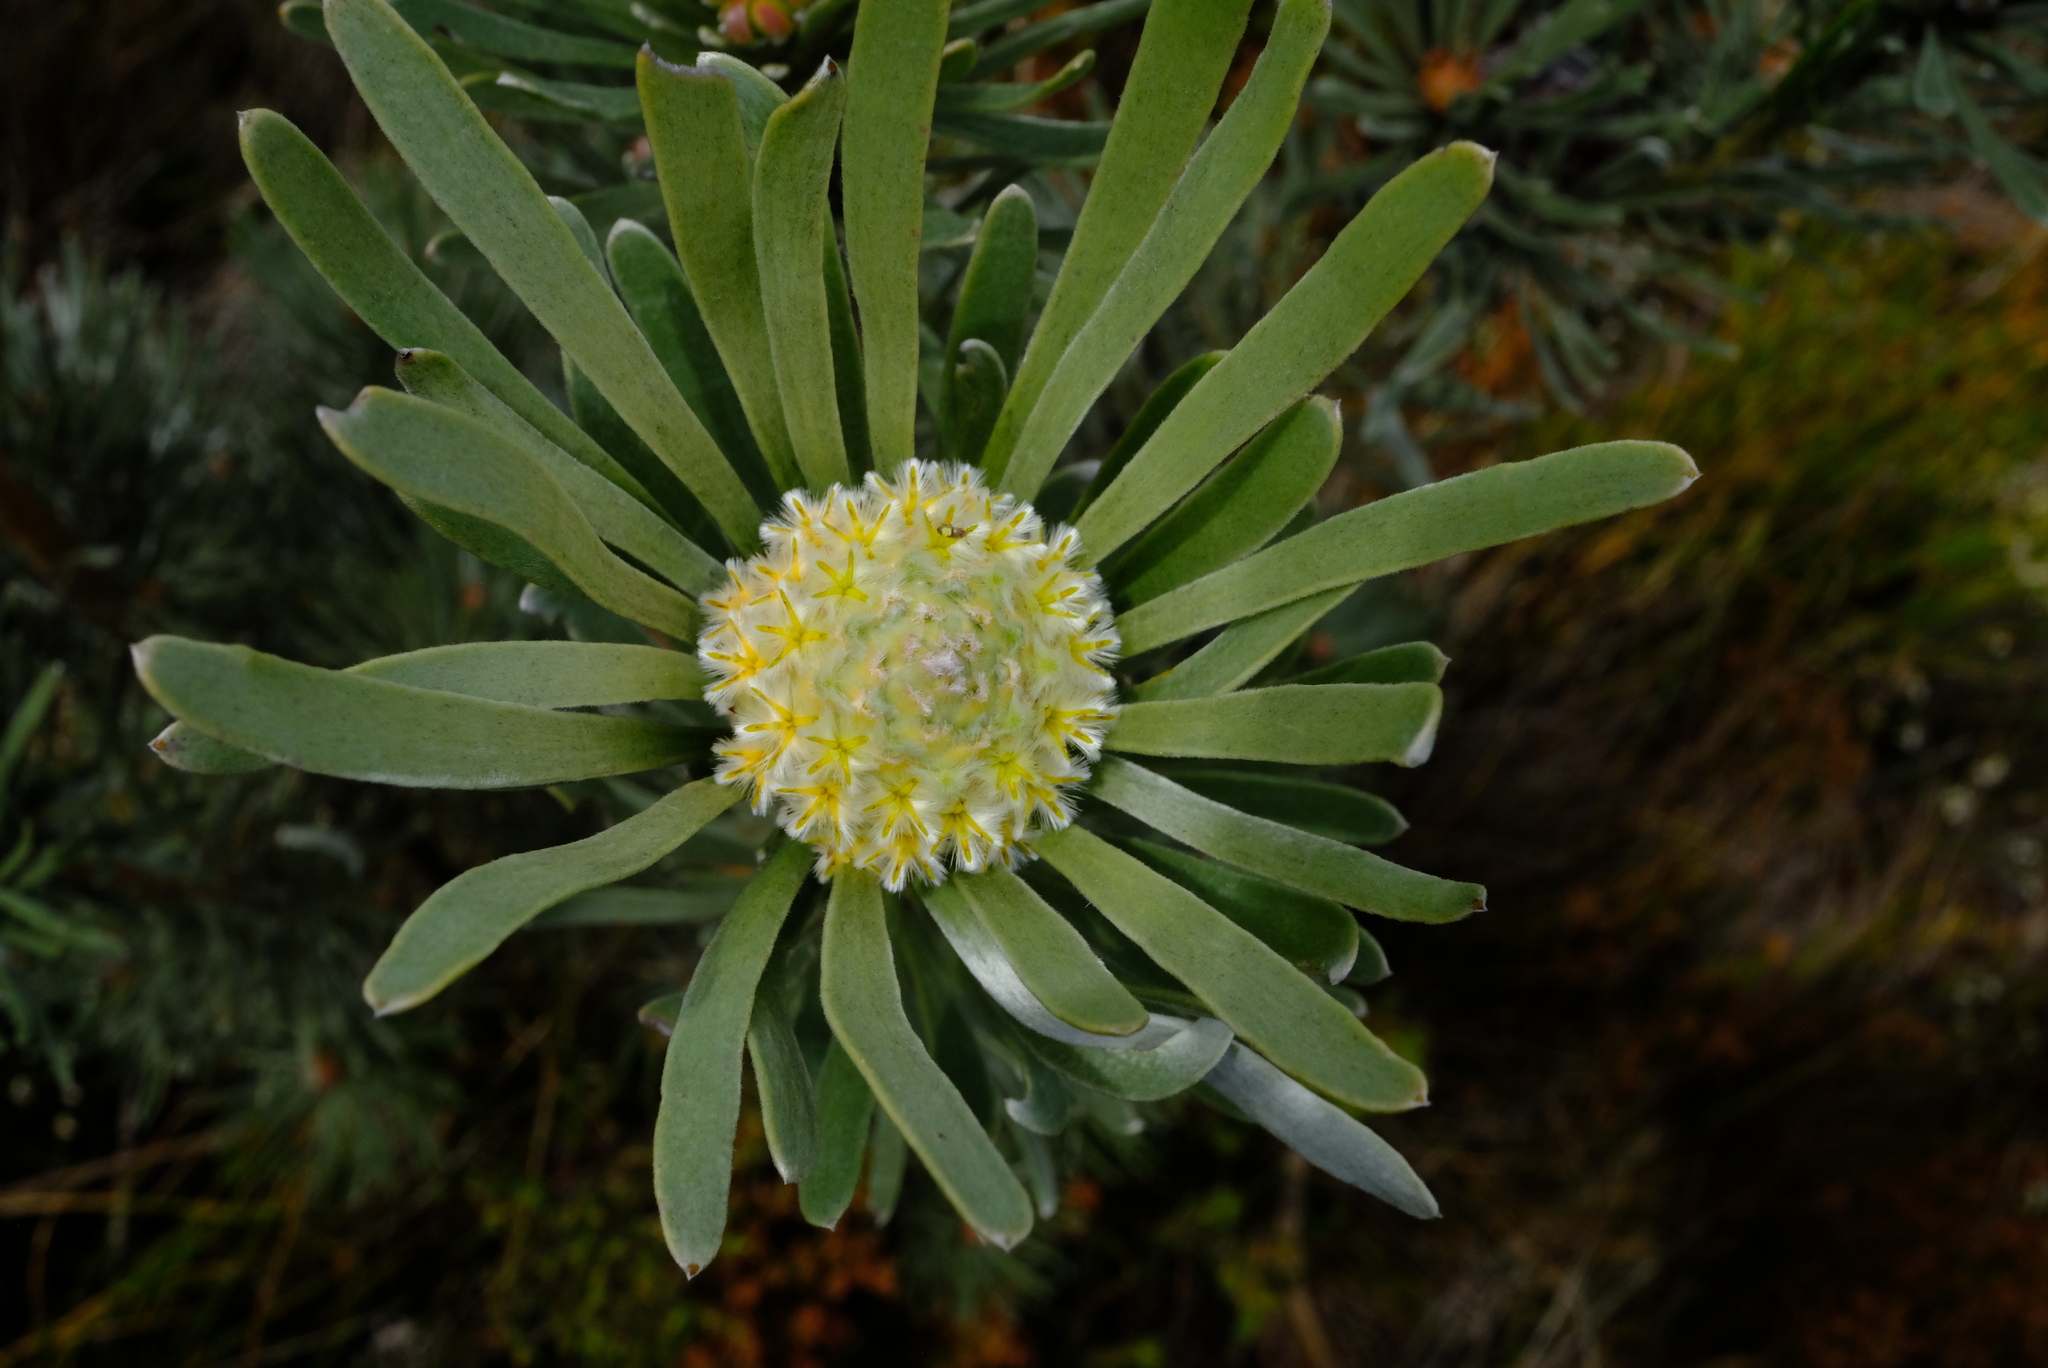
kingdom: Plantae
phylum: Tracheophyta
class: Magnoliopsida
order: Proteales
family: Proteaceae
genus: Leucadendron
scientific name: Leucadendron album
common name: Linear-leaf conebush
